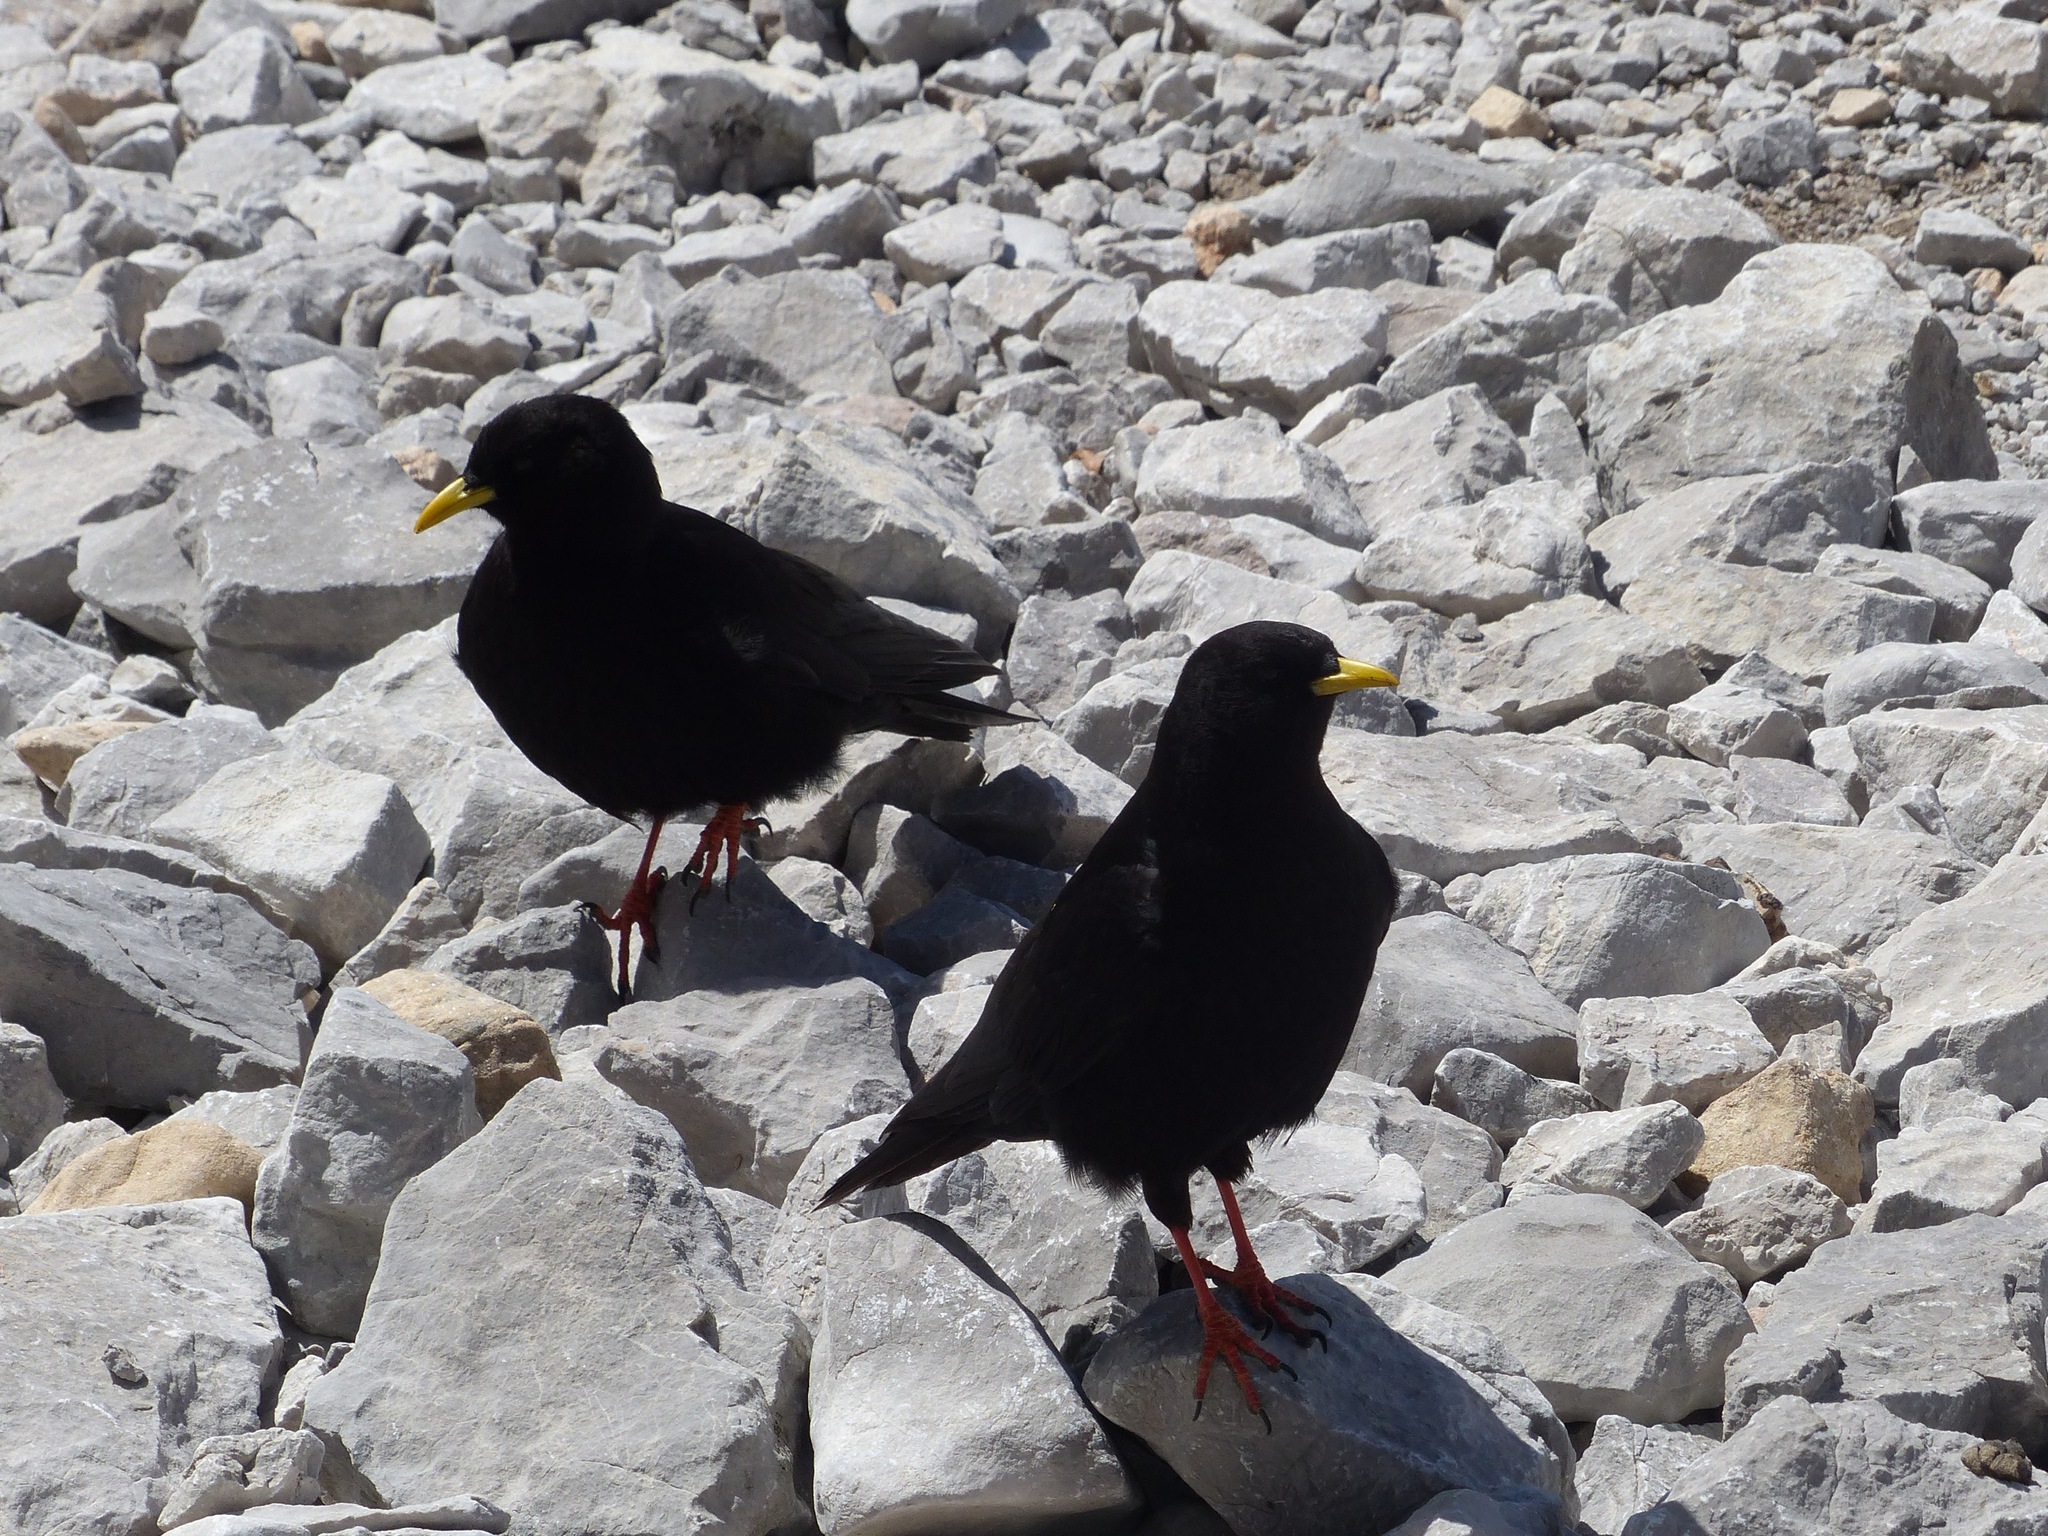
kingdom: Animalia
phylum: Chordata
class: Aves
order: Passeriformes
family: Corvidae
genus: Pyrrhocorax
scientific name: Pyrrhocorax graculus
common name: Alpine chough
